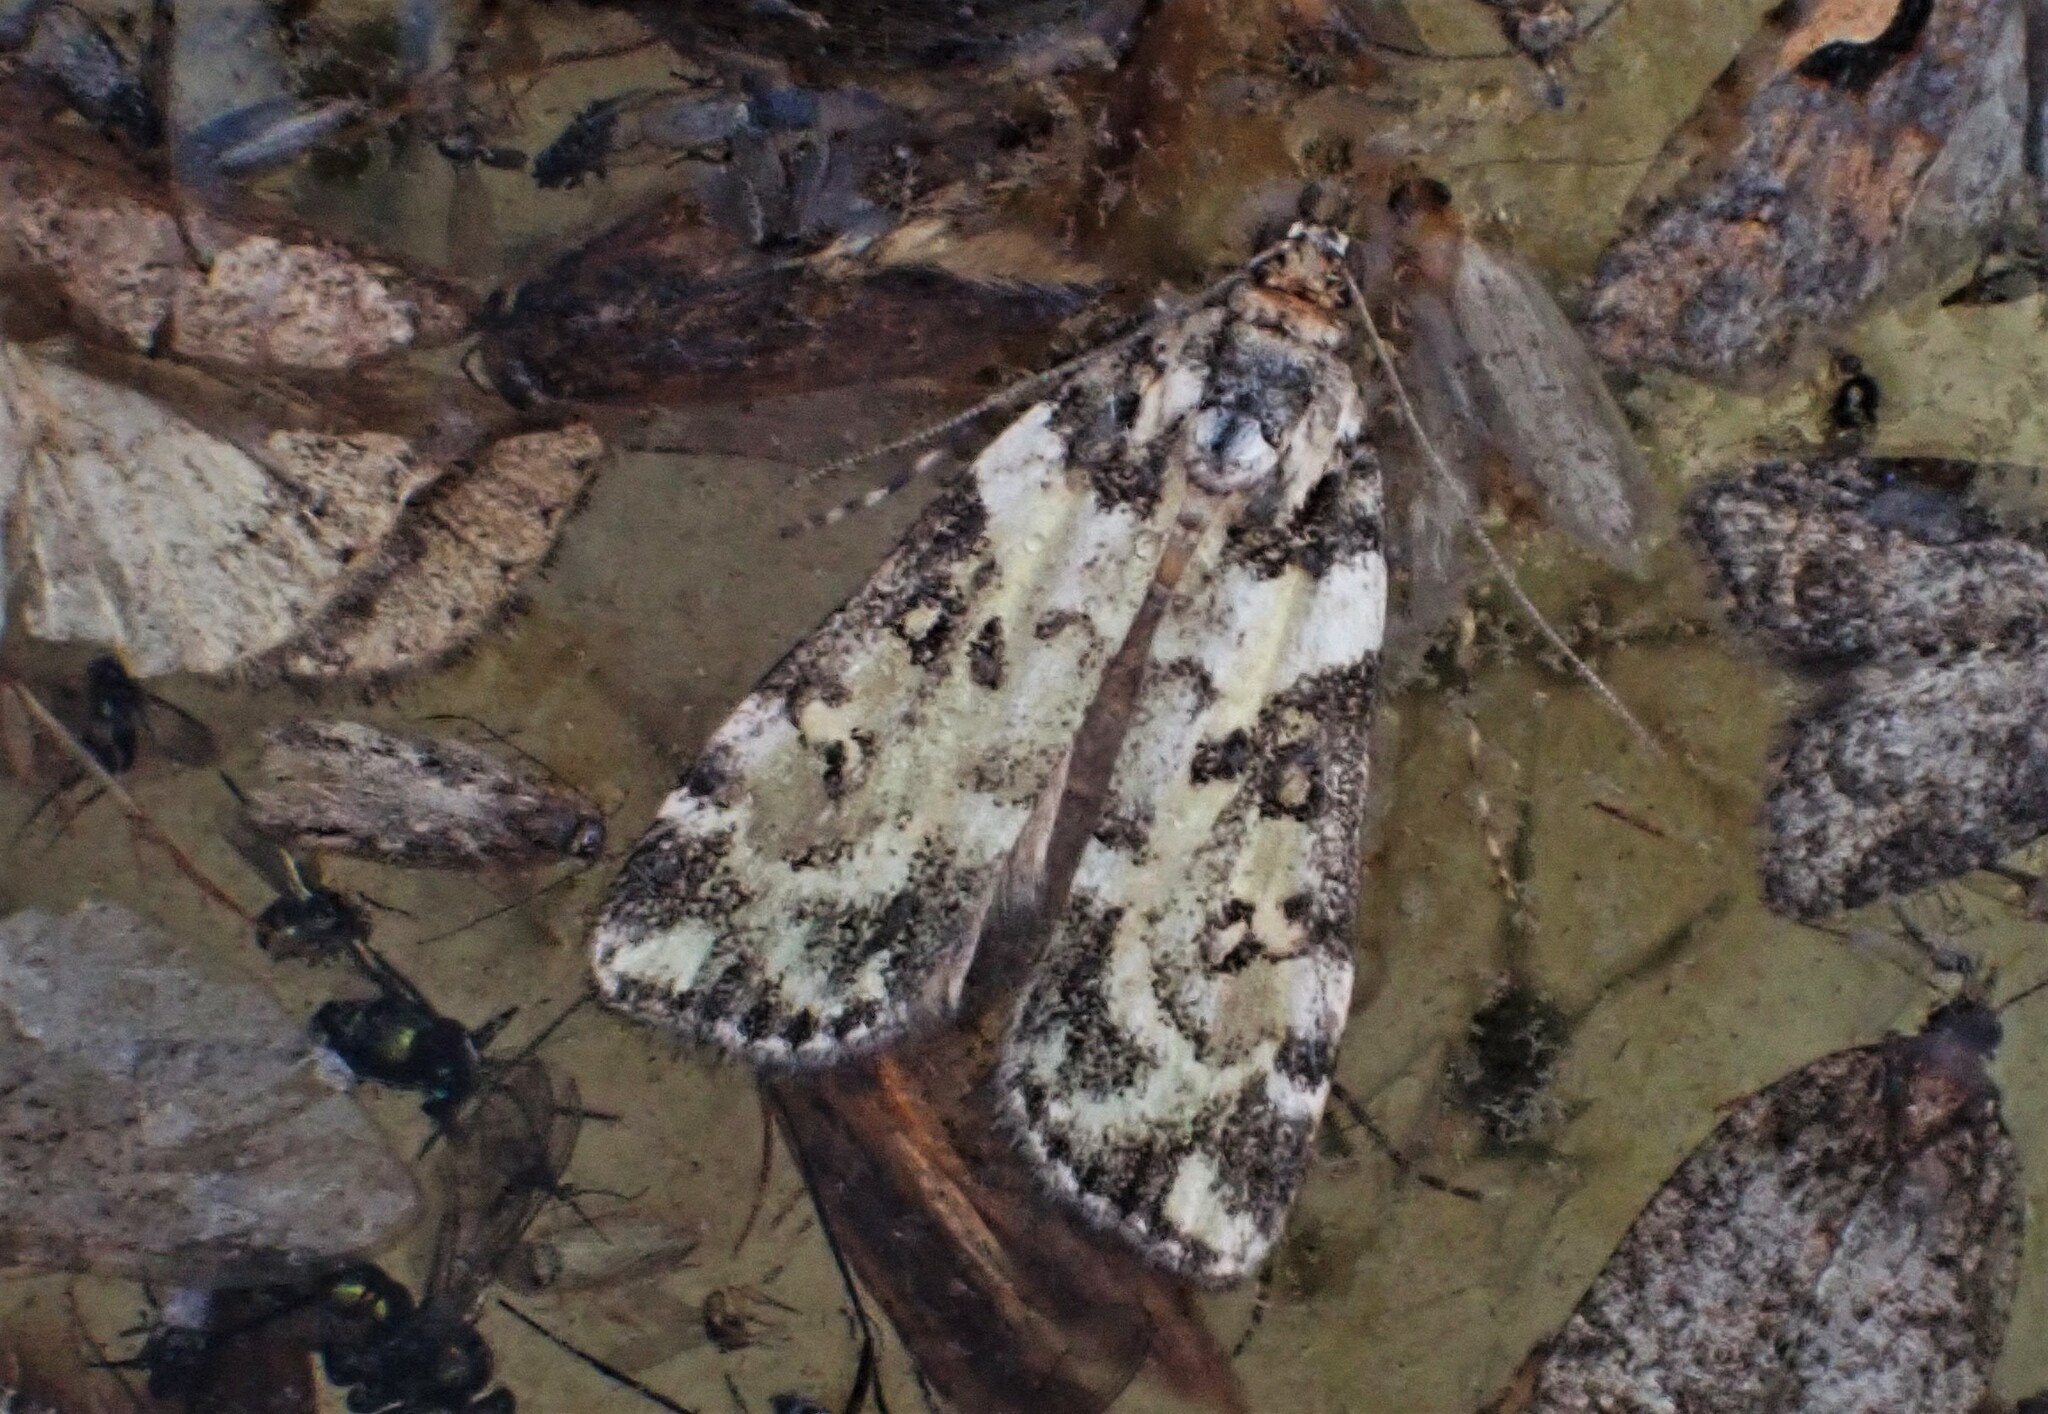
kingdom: Animalia
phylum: Arthropoda
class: Insecta
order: Lepidoptera
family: Crambidae
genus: Eudonia
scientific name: Eudonia diphtheralis
